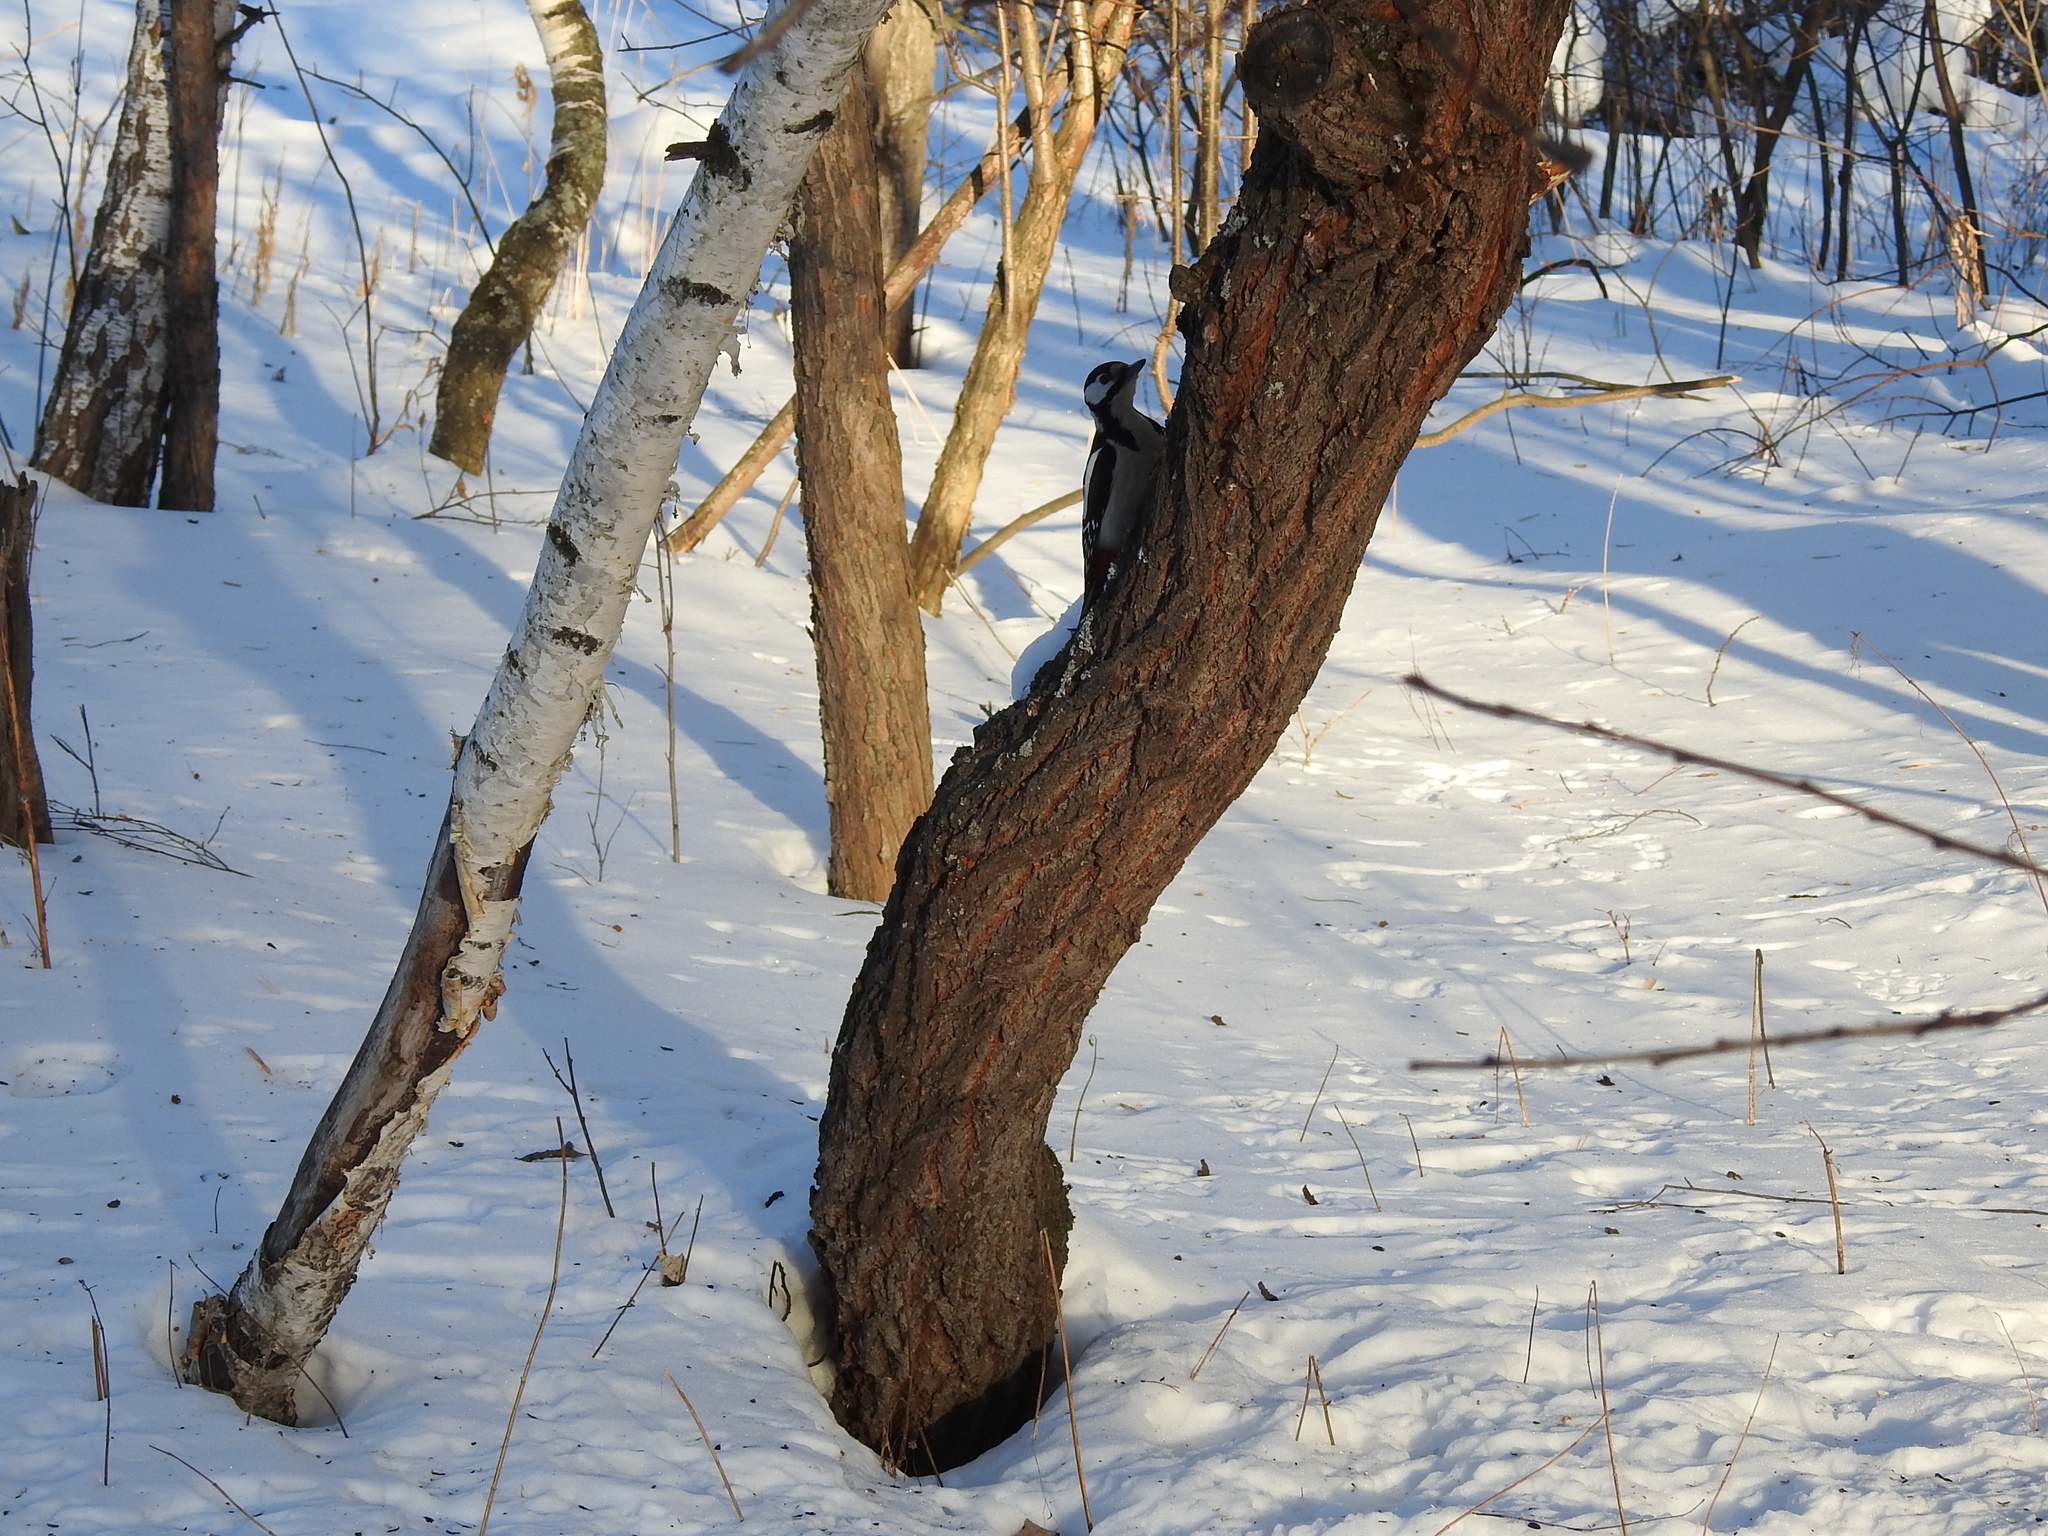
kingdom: Animalia
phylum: Chordata
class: Aves
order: Piciformes
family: Picidae
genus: Dendrocopos
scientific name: Dendrocopos major
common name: Great spotted woodpecker
